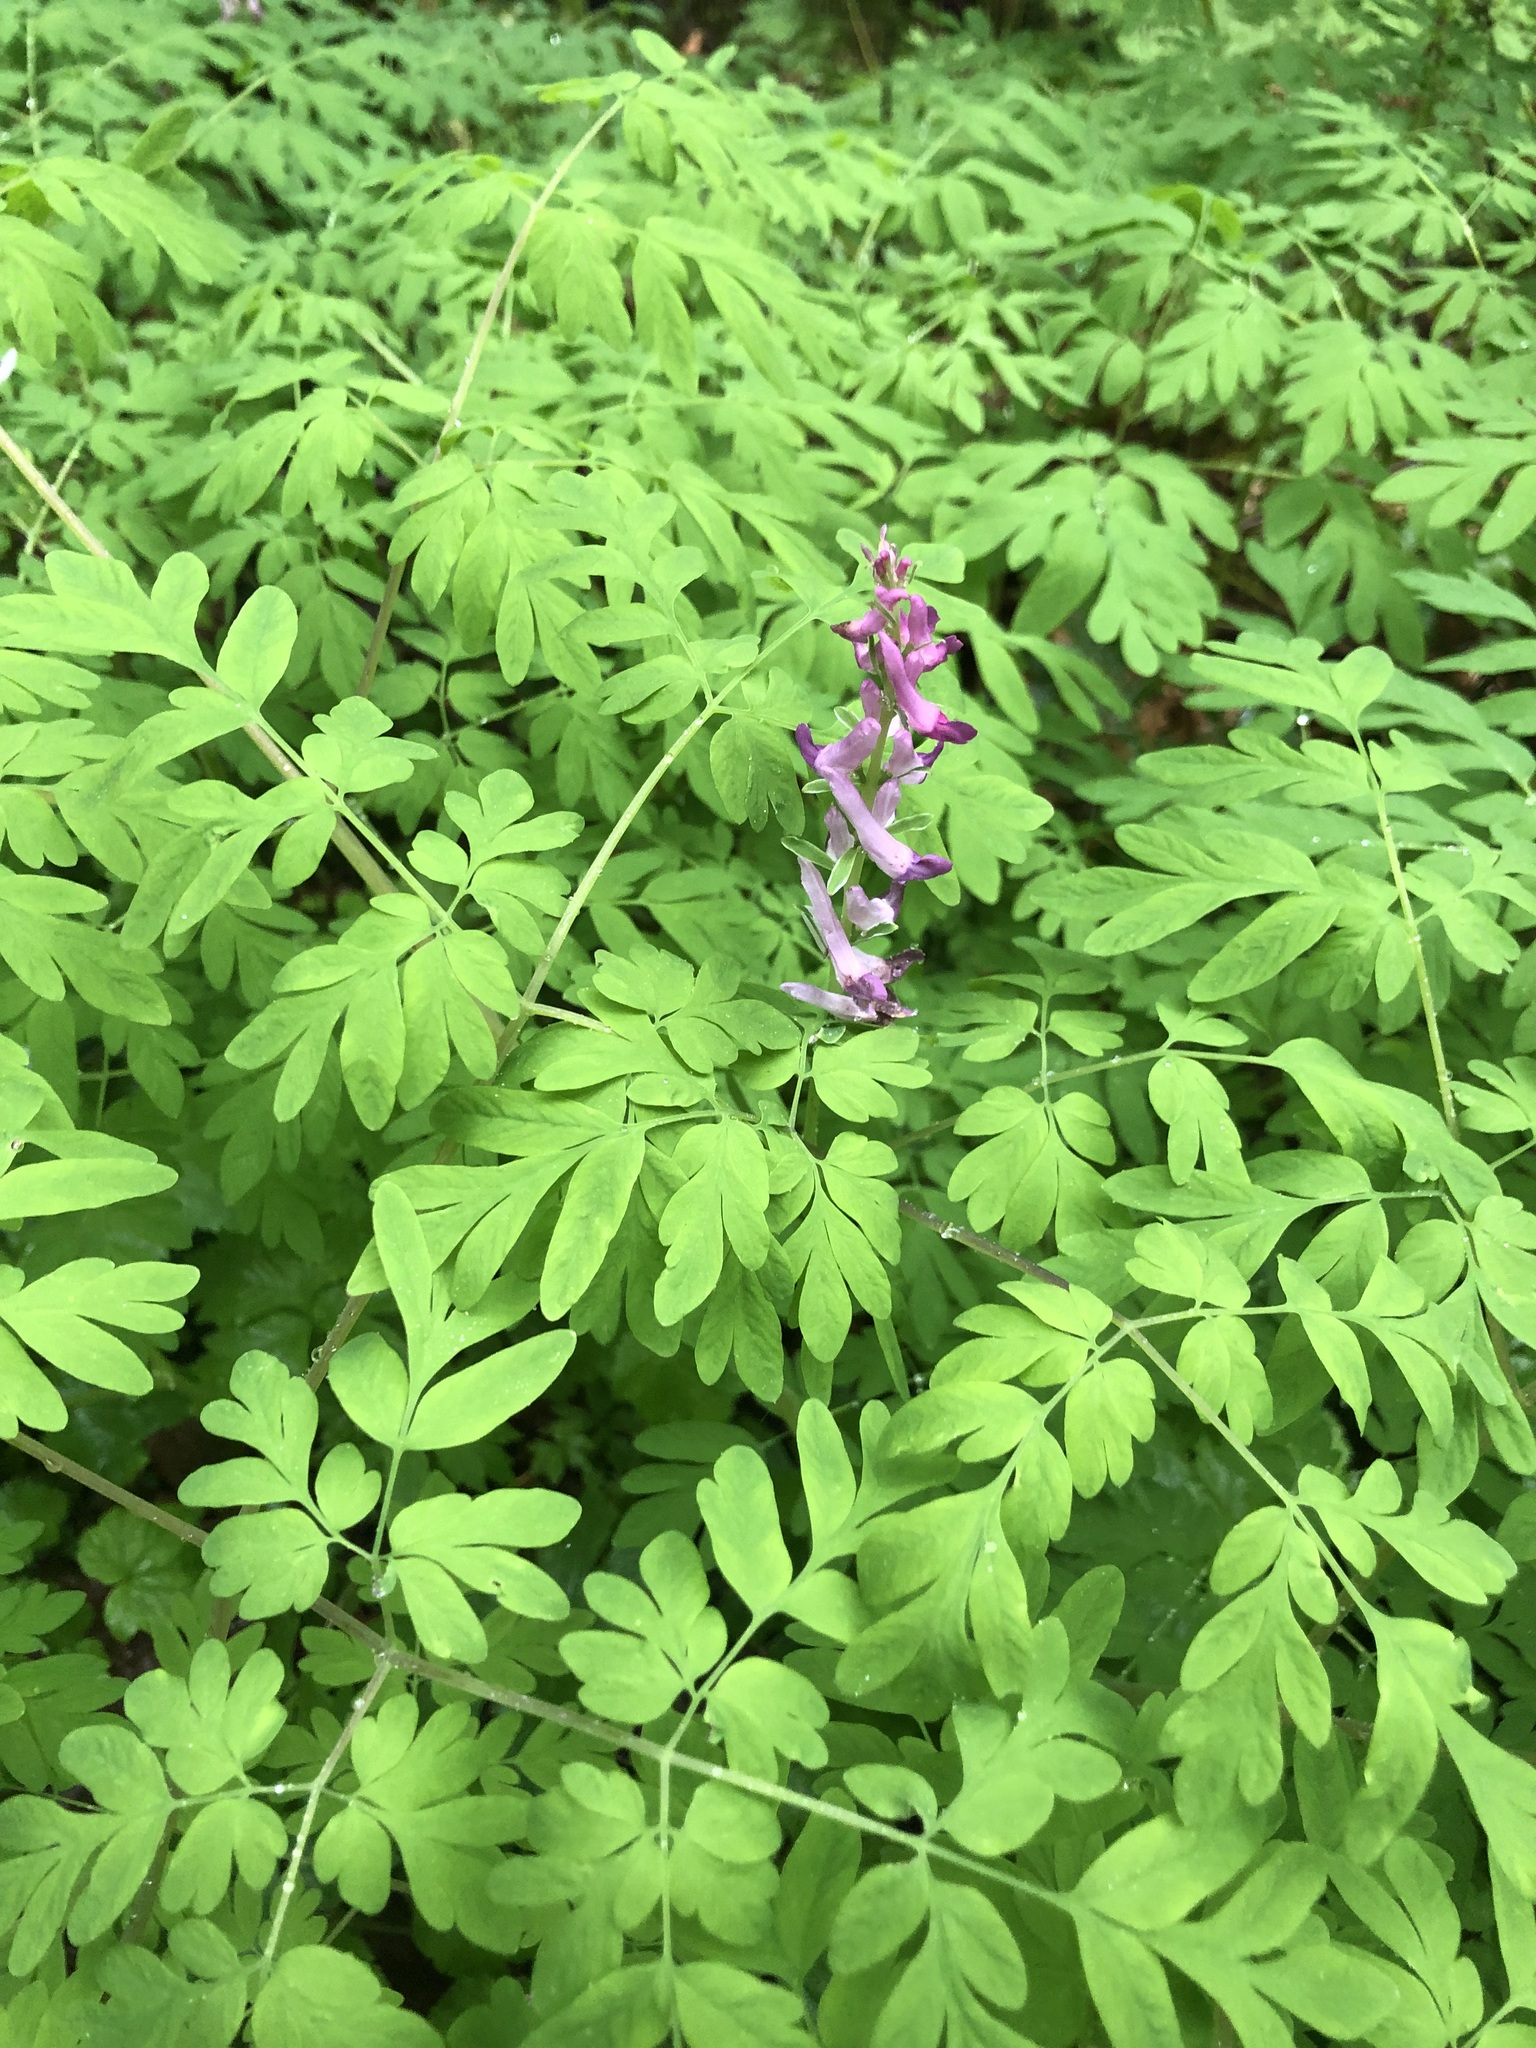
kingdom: Plantae
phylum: Tracheophyta
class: Magnoliopsida
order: Ranunculales
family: Papaveraceae
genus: Corydalis
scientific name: Corydalis scouleri
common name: Scouler's corydalis
